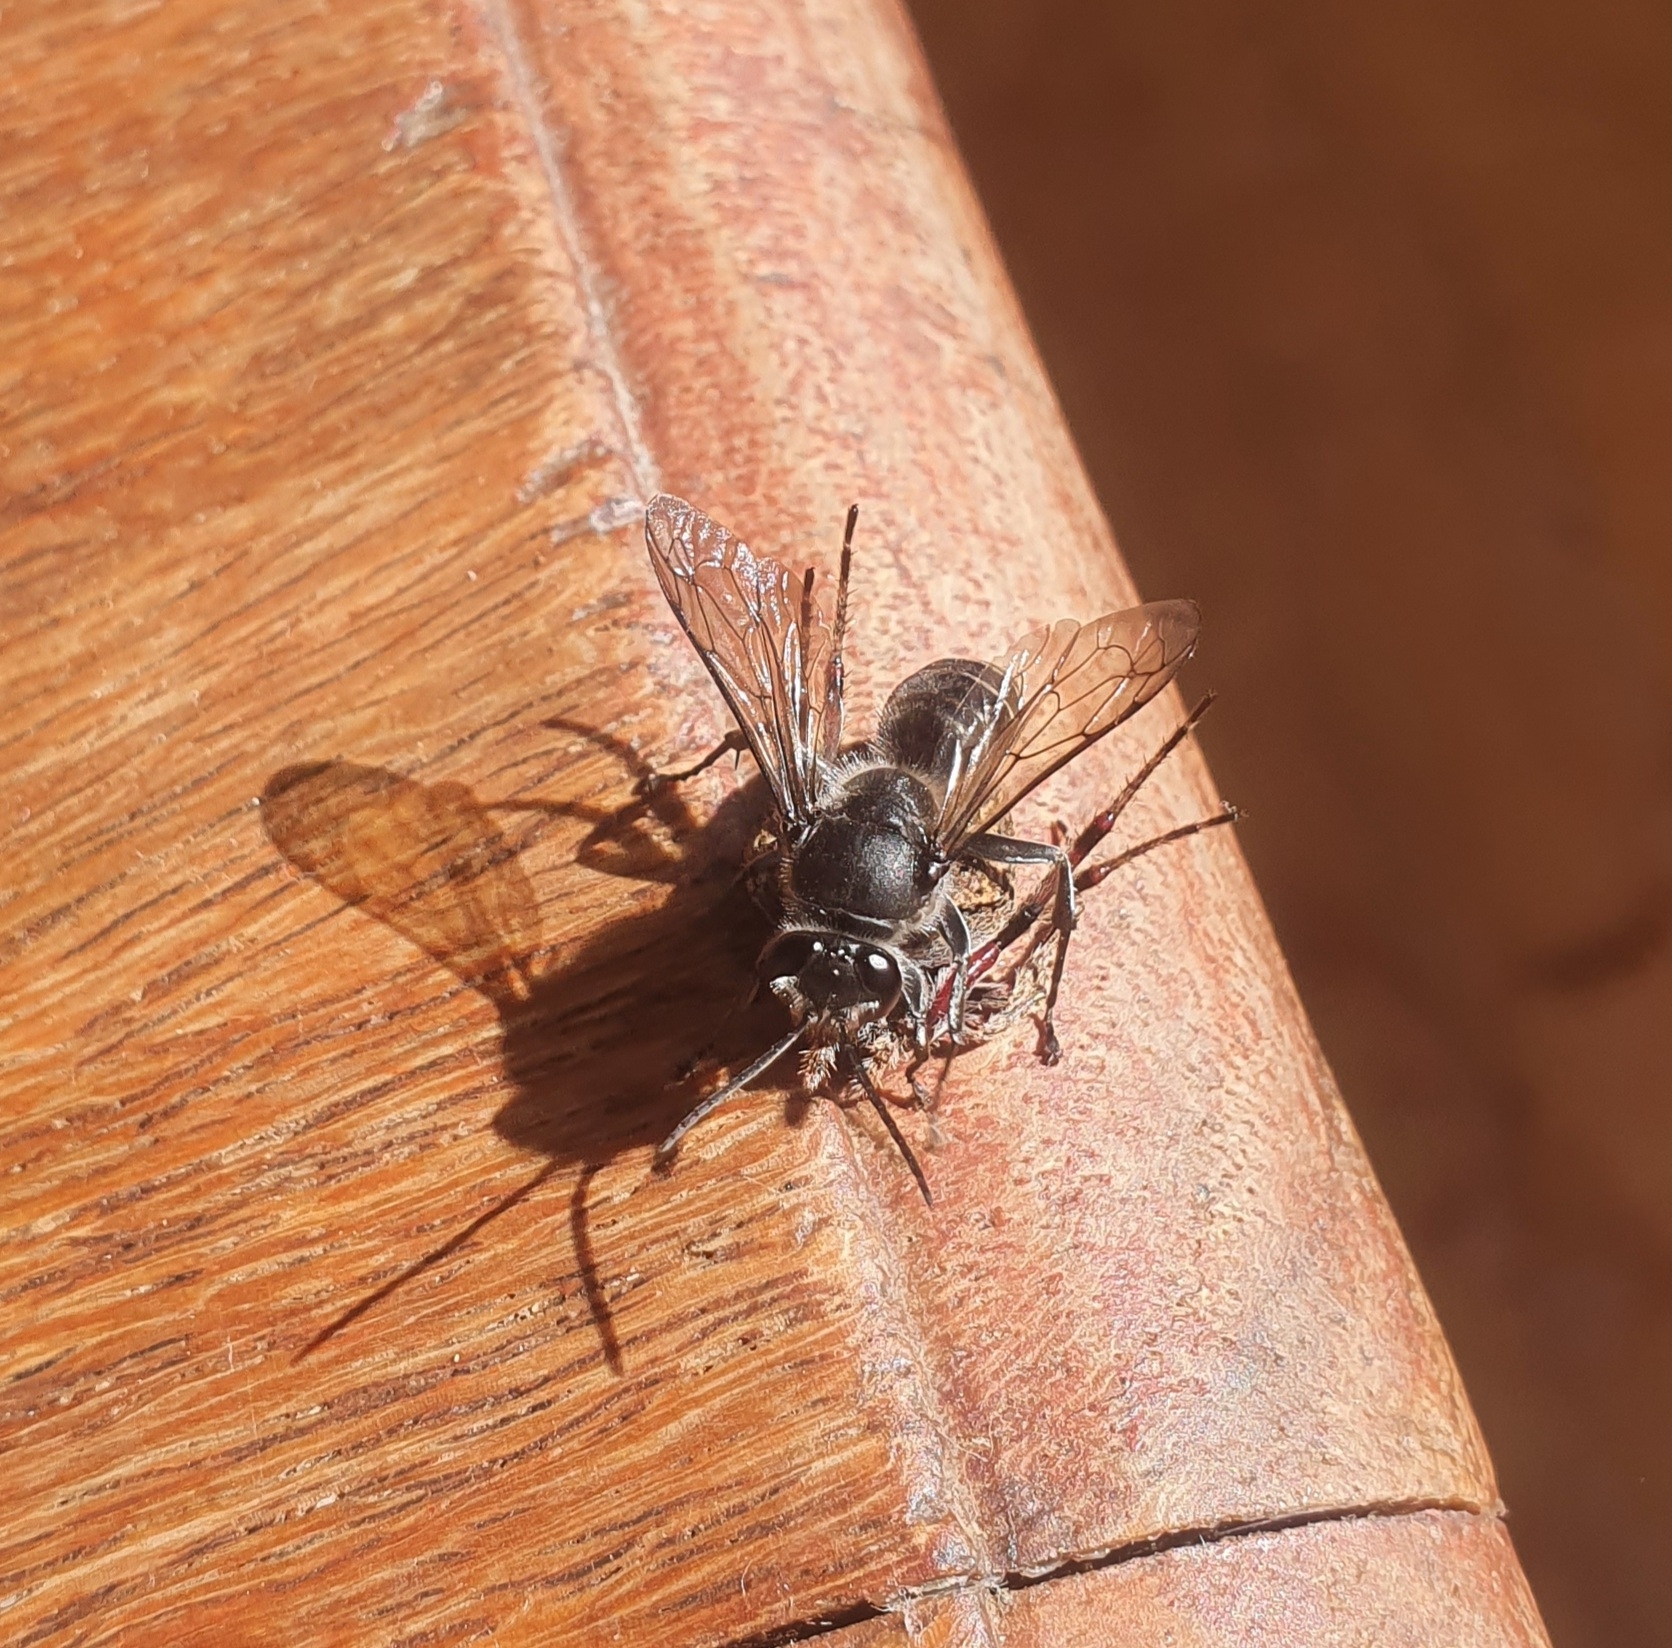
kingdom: Animalia
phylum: Arthropoda
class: Insecta
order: Hymenoptera
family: Crabronidae
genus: Pison
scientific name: Pison spinolae
